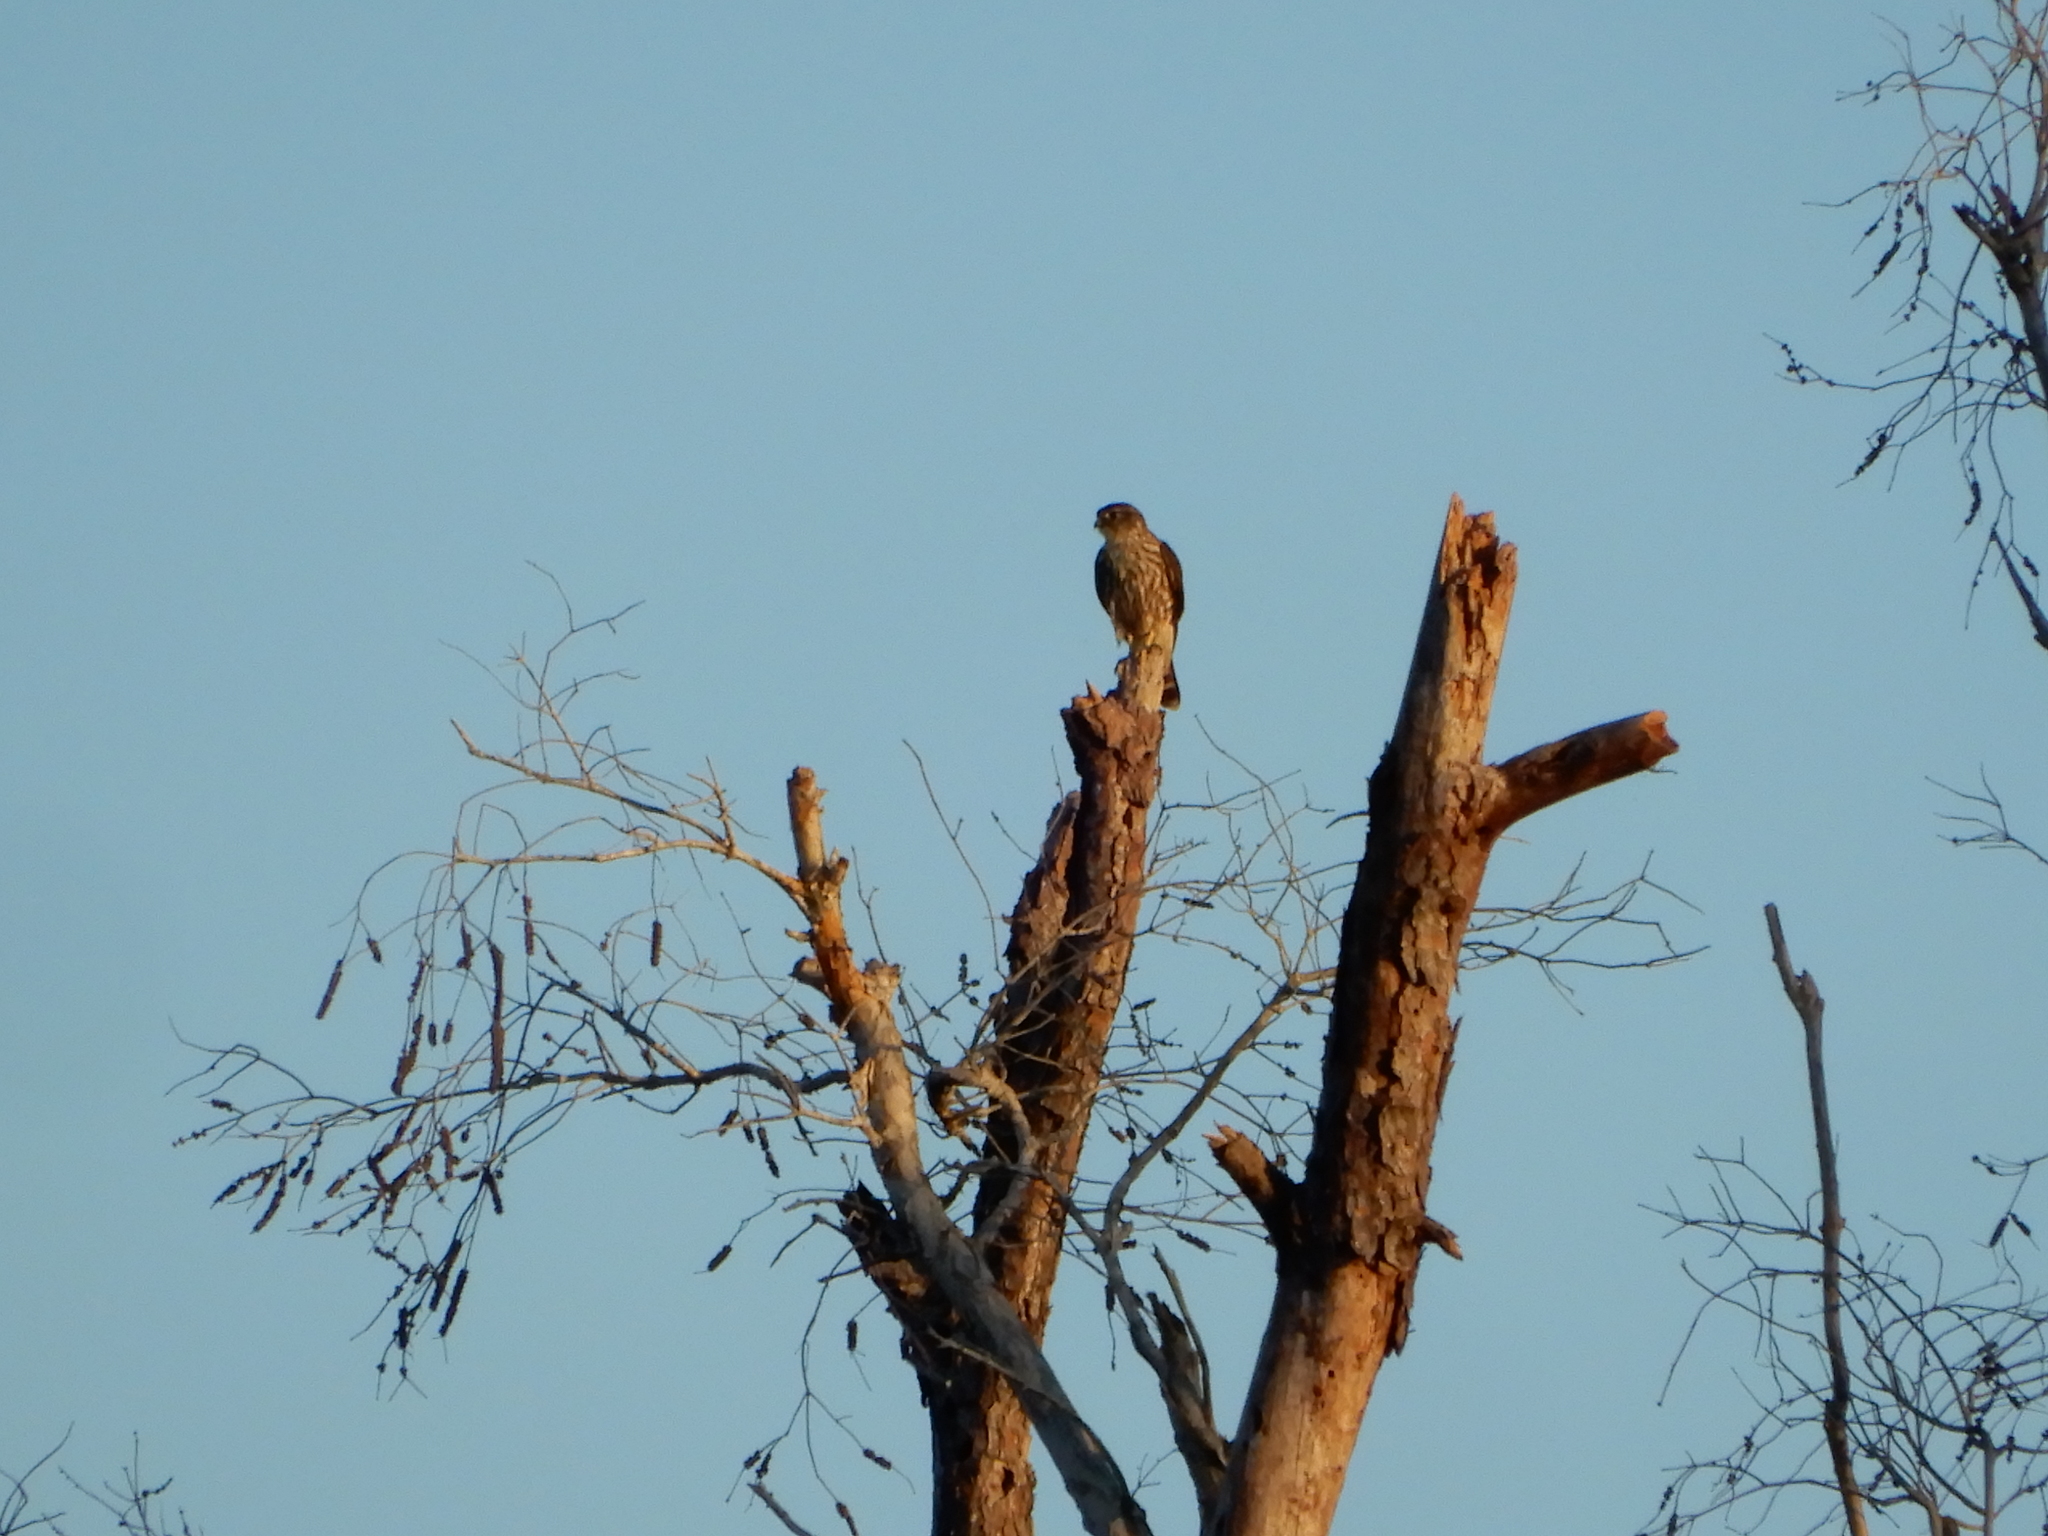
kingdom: Animalia
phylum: Chordata
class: Aves
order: Falconiformes
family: Falconidae
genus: Falco
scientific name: Falco columbarius
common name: Merlin
